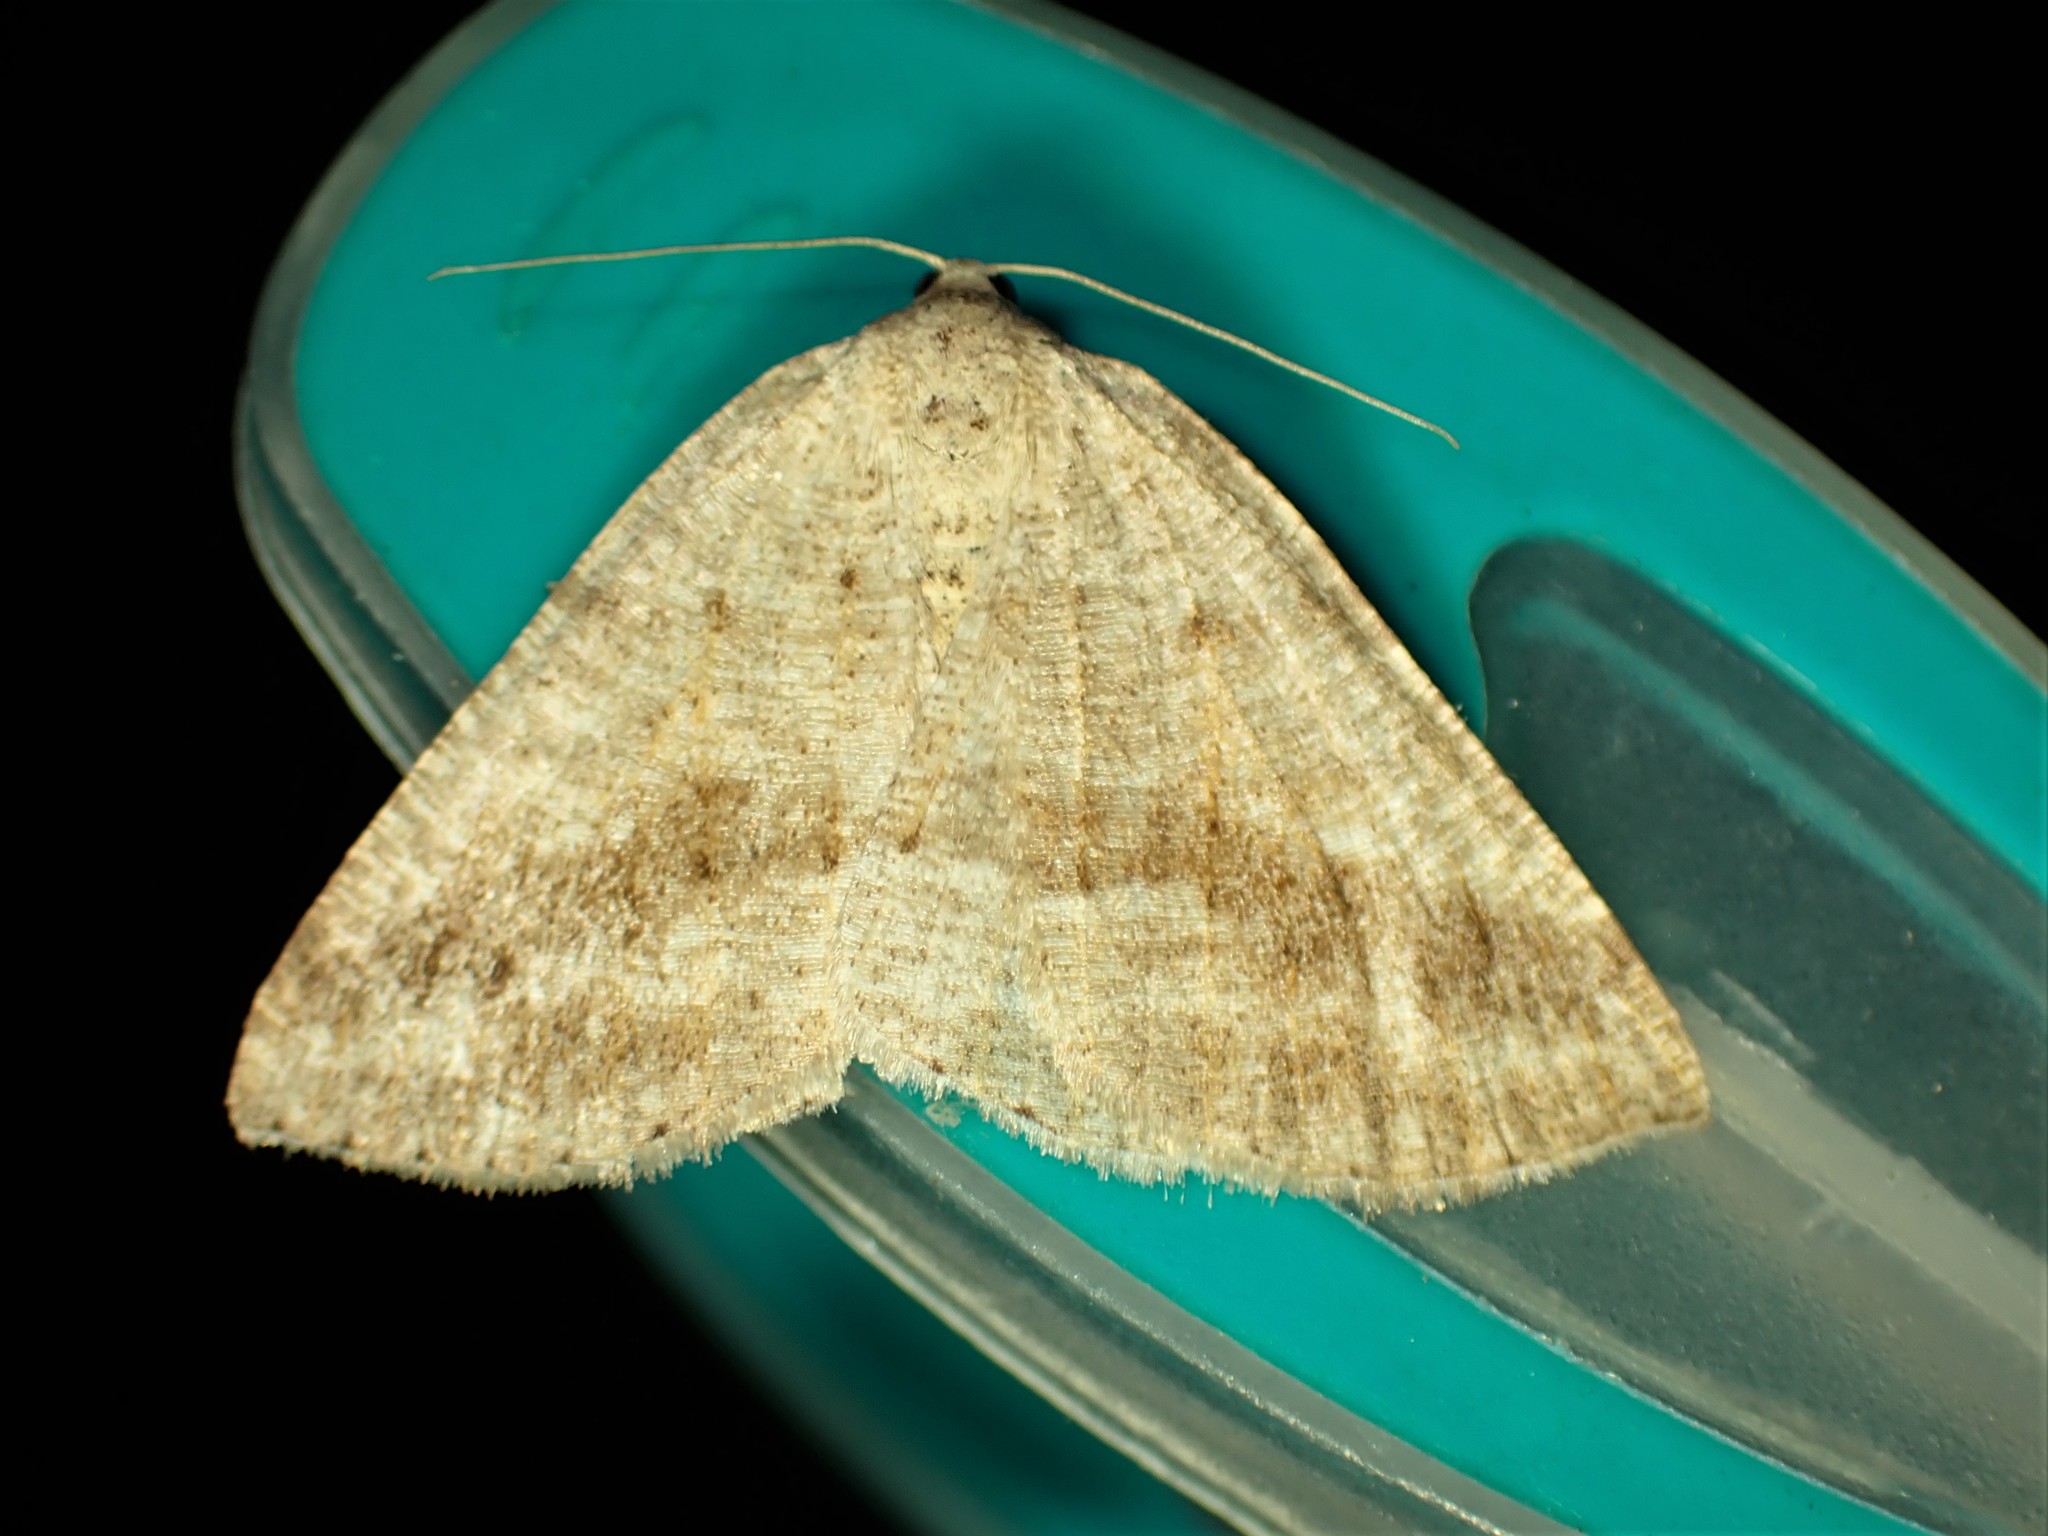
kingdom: Animalia
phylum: Arthropoda
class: Insecta
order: Lepidoptera
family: Geometridae
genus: Tacparia
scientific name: Tacparia detersata
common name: Pale alder moth
